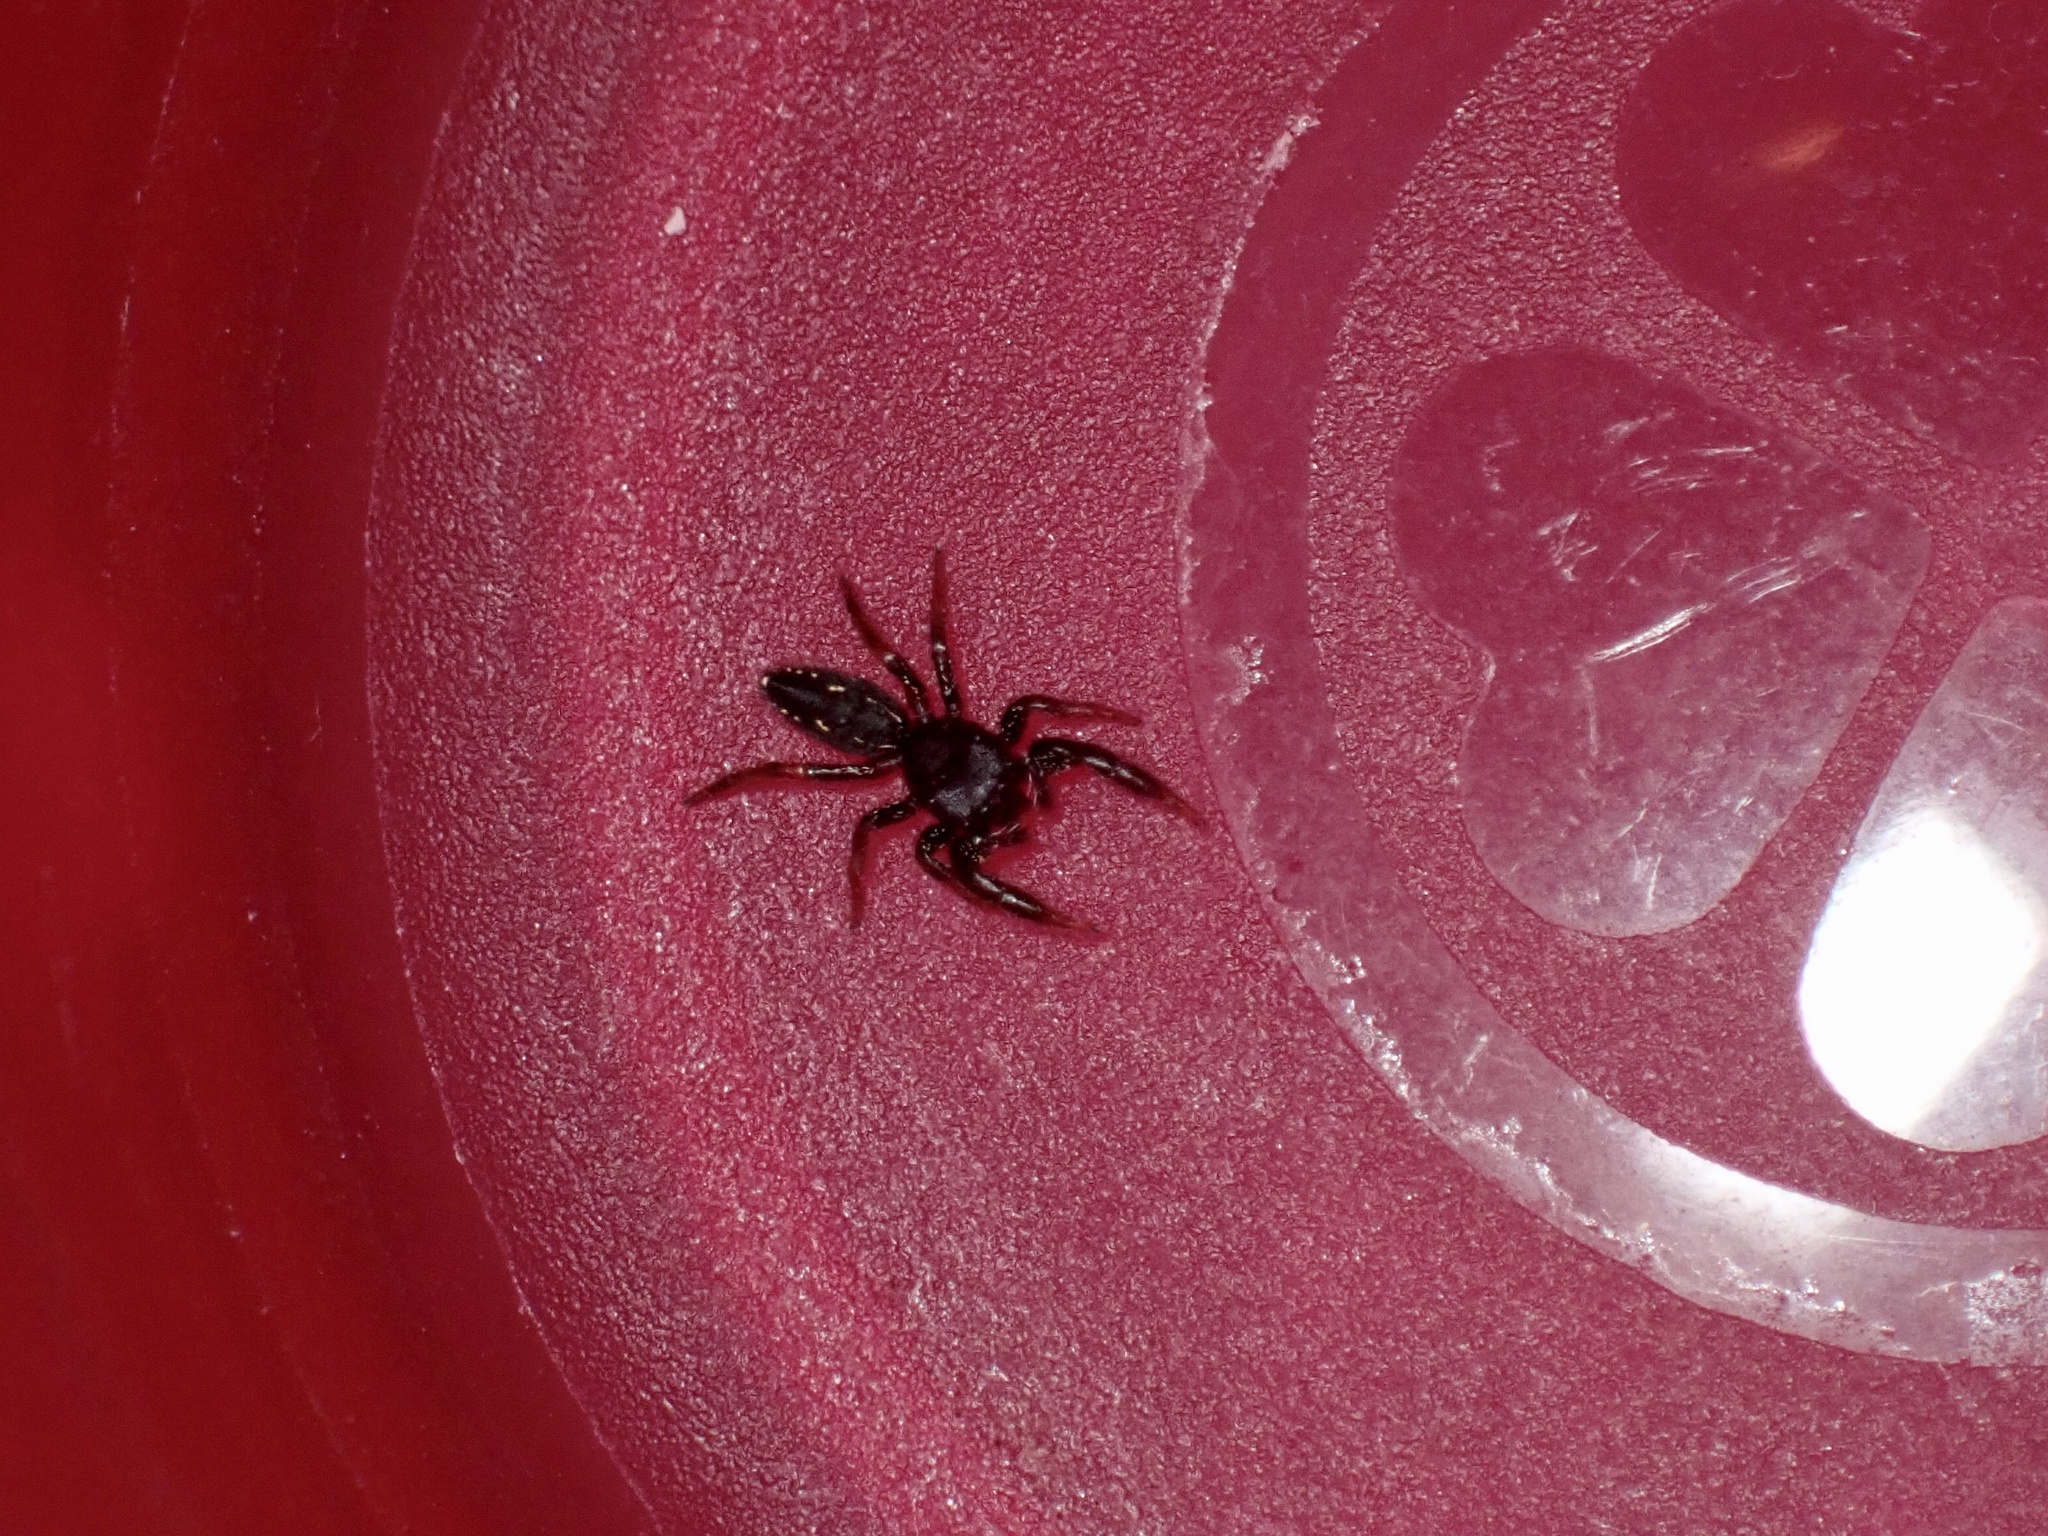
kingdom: Animalia
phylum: Arthropoda
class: Arachnida
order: Araneae
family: Salticidae
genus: Metacyrba
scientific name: Metacyrba taeniola
